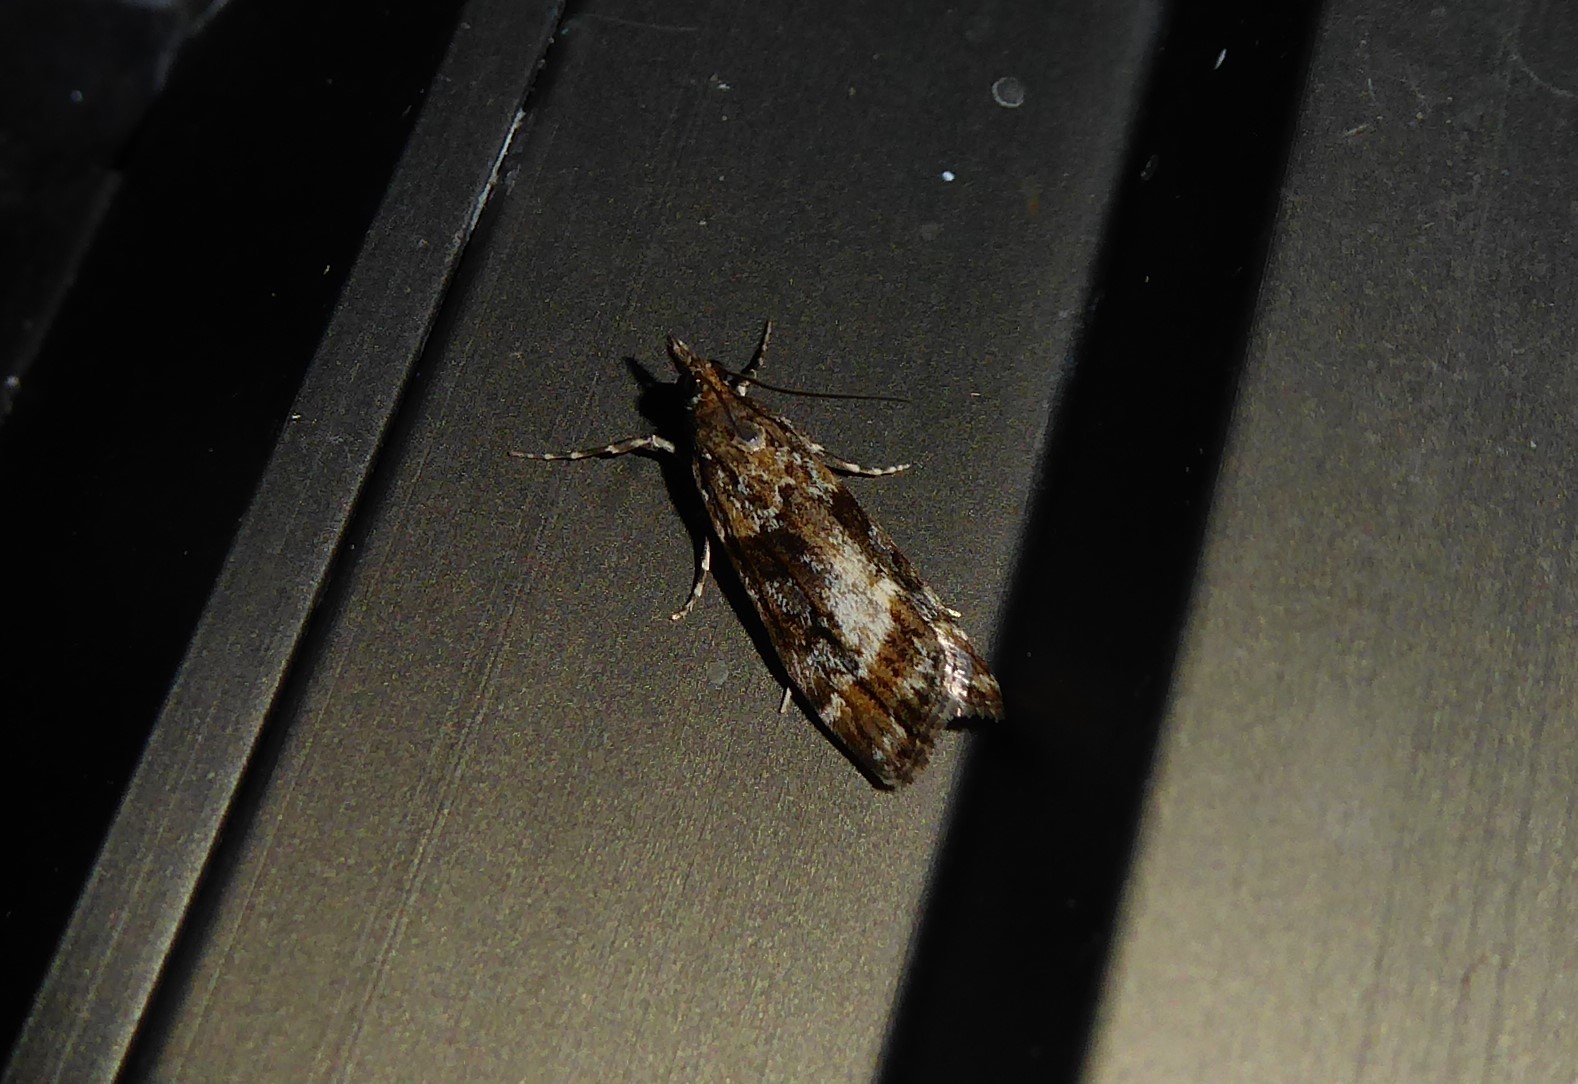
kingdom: Animalia
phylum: Arthropoda
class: Insecta
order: Lepidoptera
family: Crambidae
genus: Eudonia
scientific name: Eudonia luminatrix
